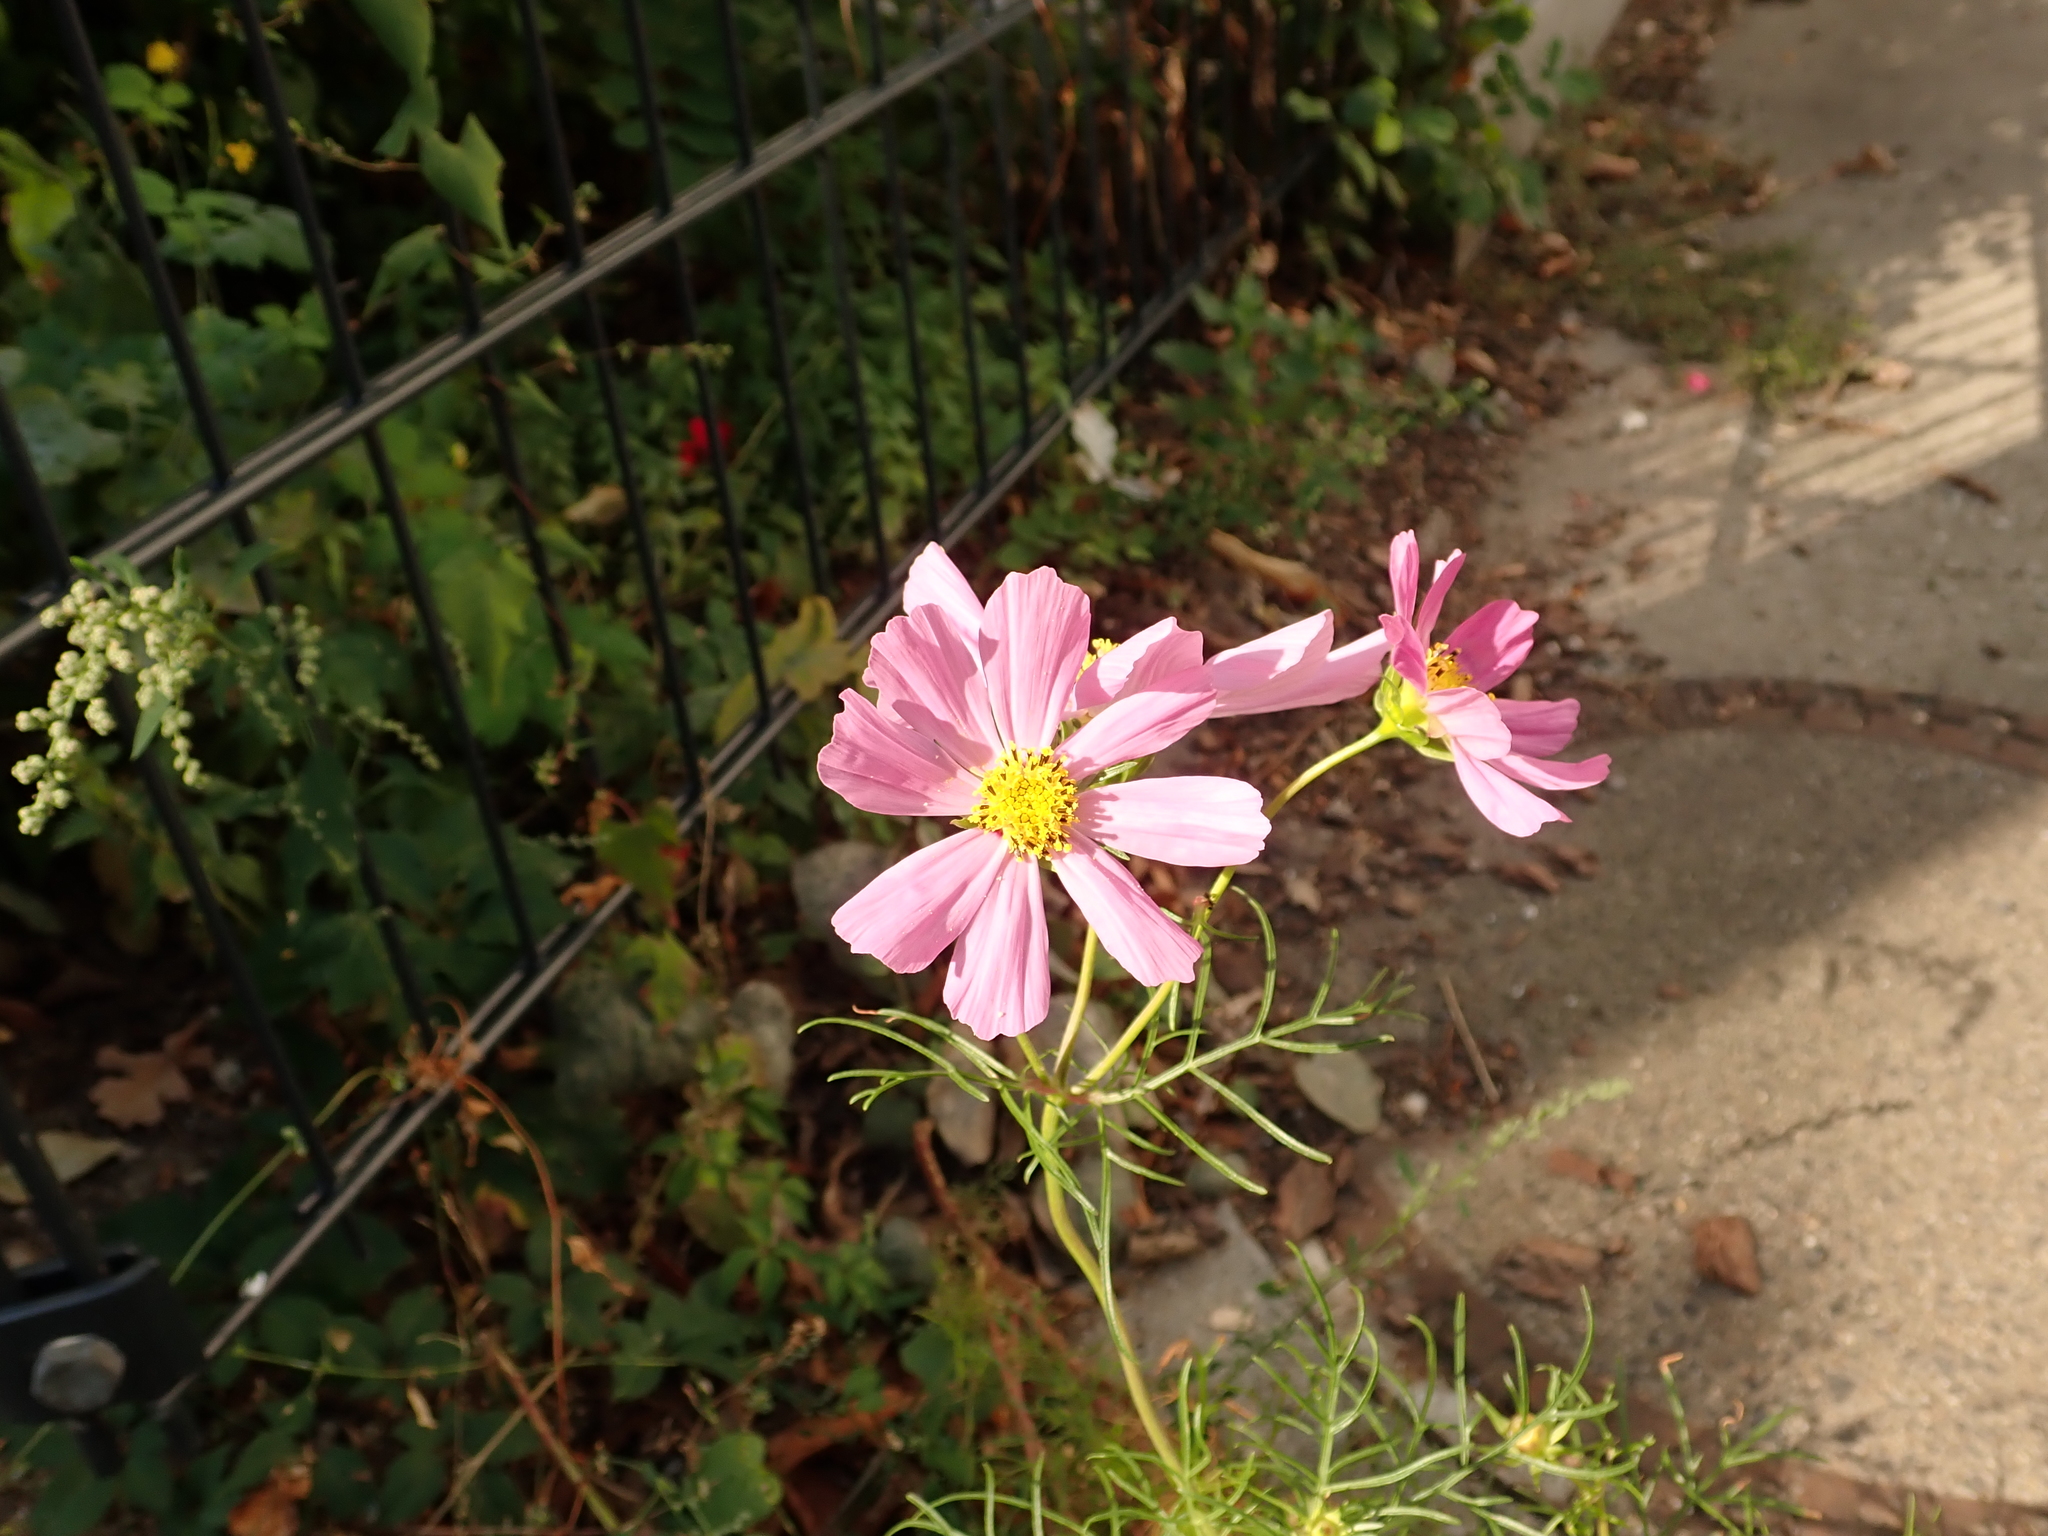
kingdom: Plantae
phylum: Tracheophyta
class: Magnoliopsida
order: Asterales
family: Asteraceae
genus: Cosmos
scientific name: Cosmos bipinnatus
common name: Garden cosmos
